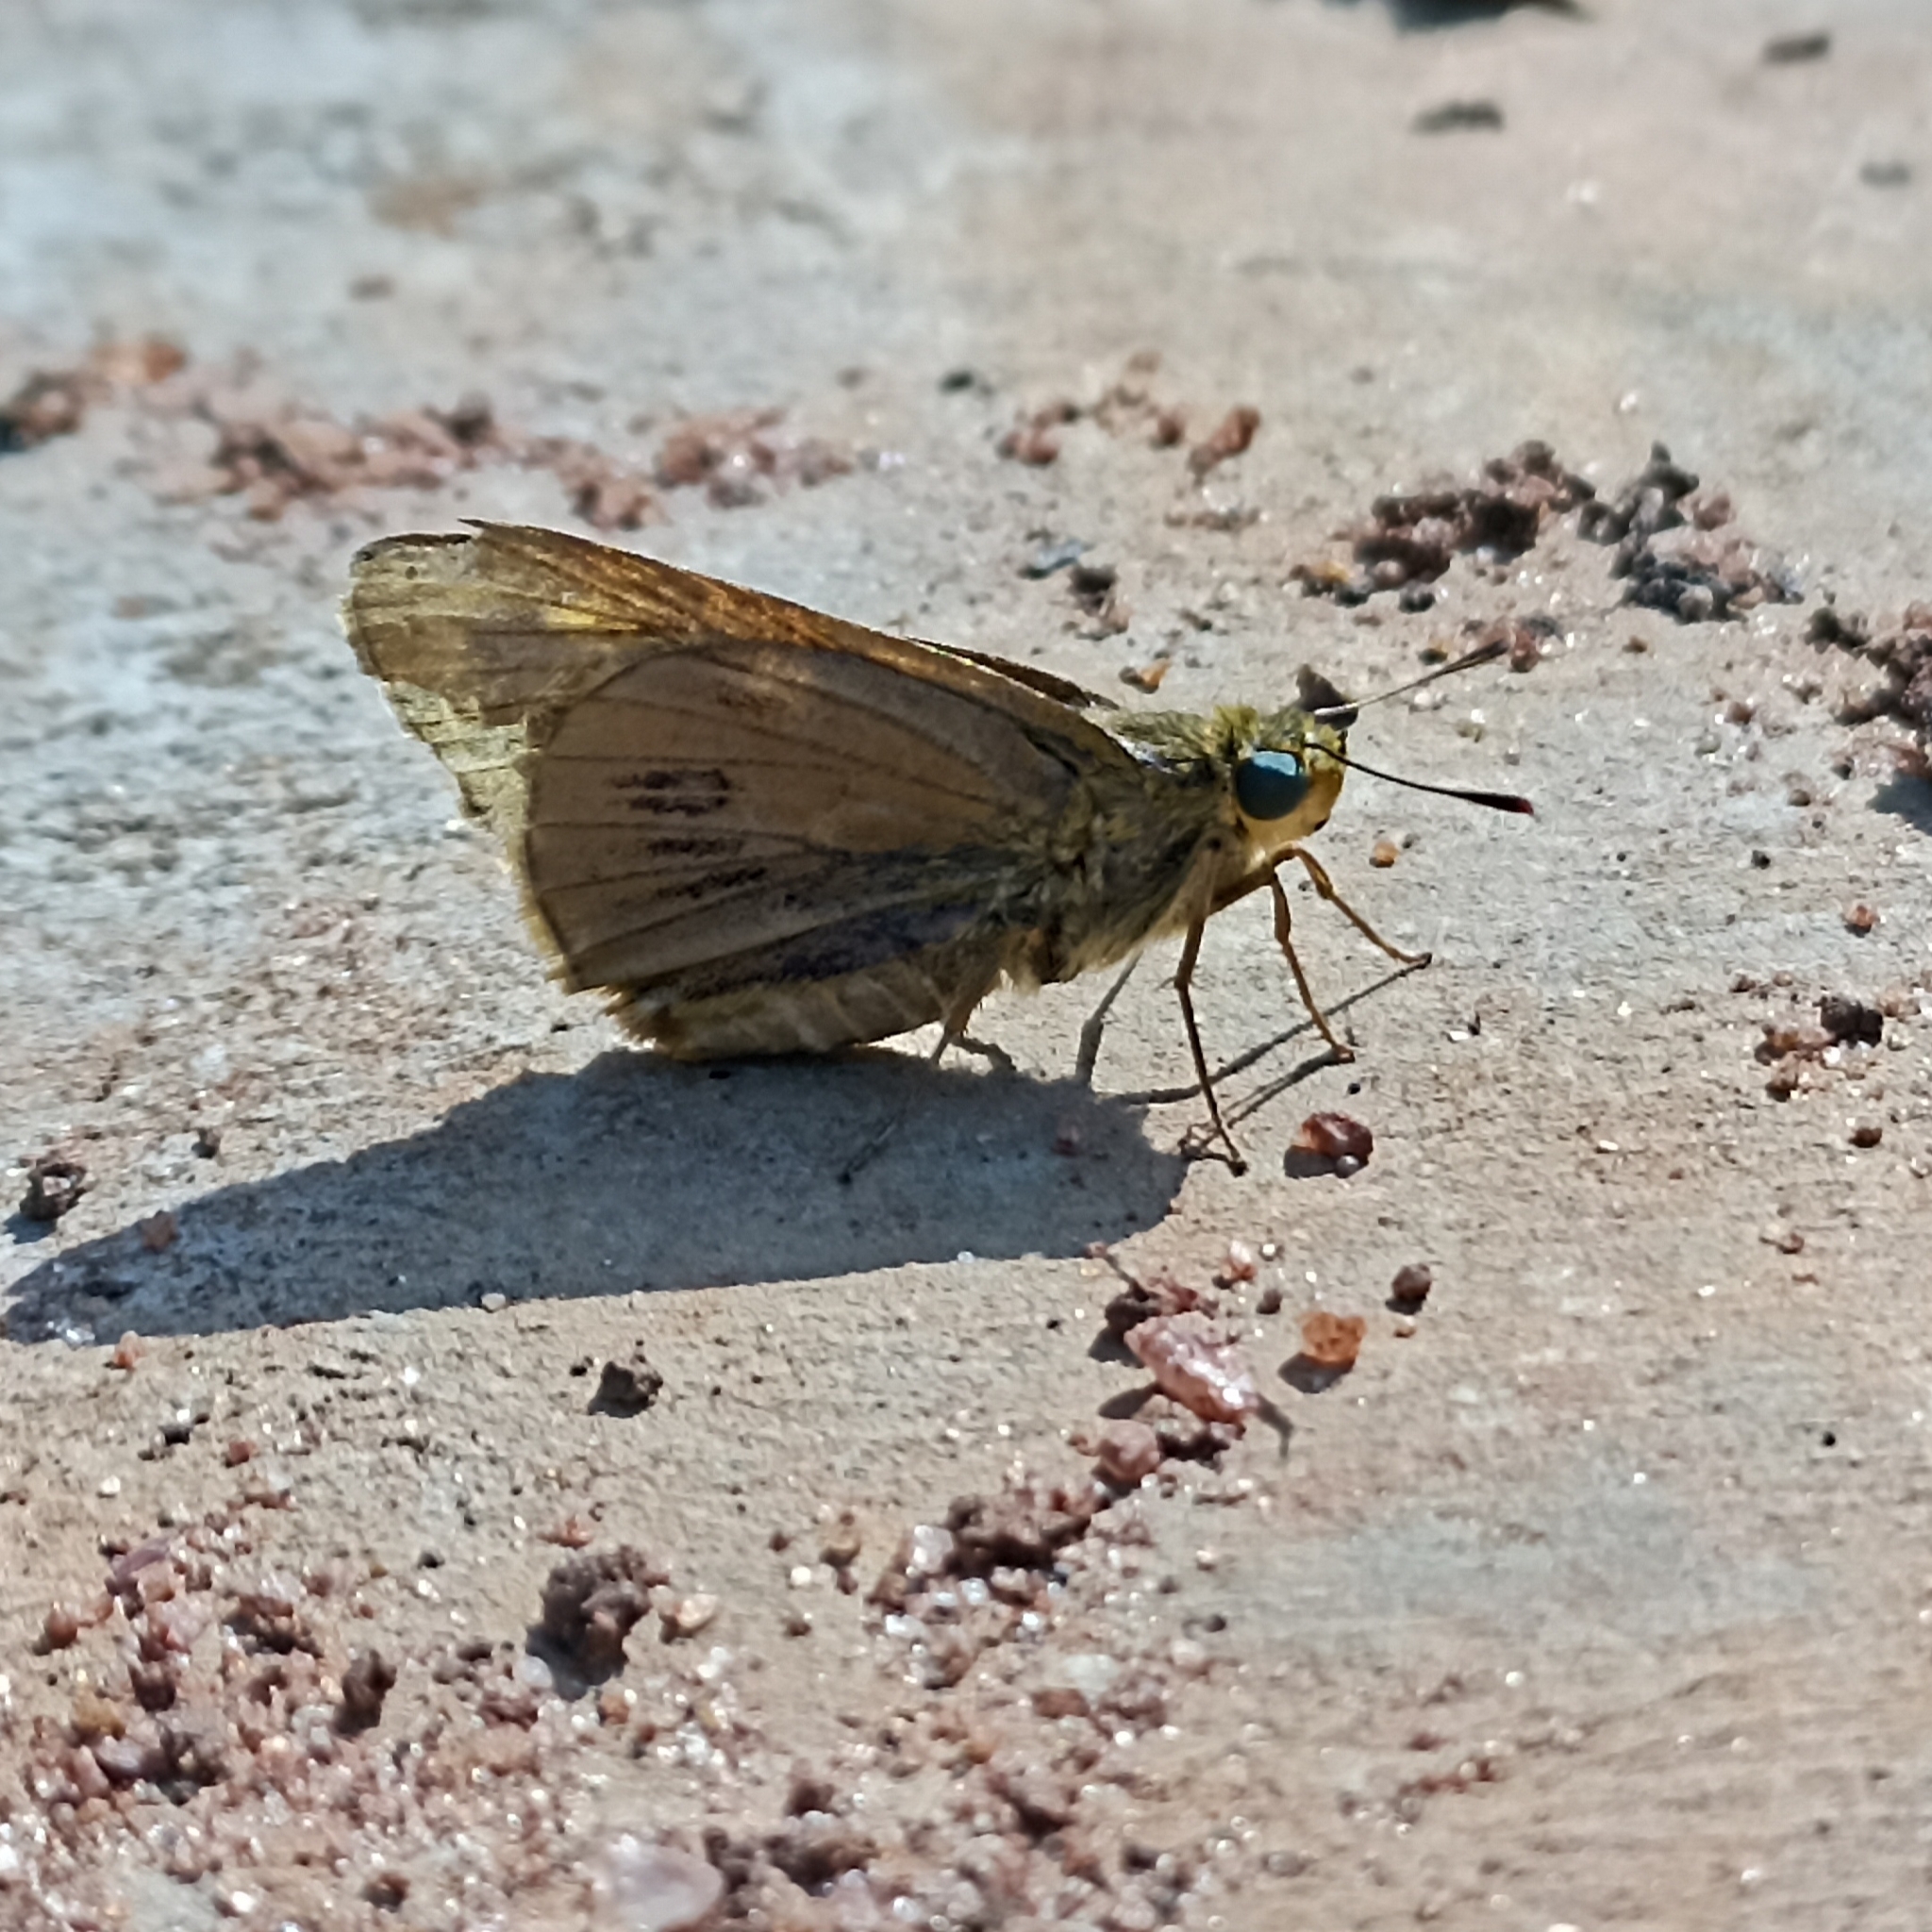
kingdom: Animalia
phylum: Arthropoda
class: Insecta
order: Lepidoptera
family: Hesperiidae
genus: Cephrenes
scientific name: Cephrenes
